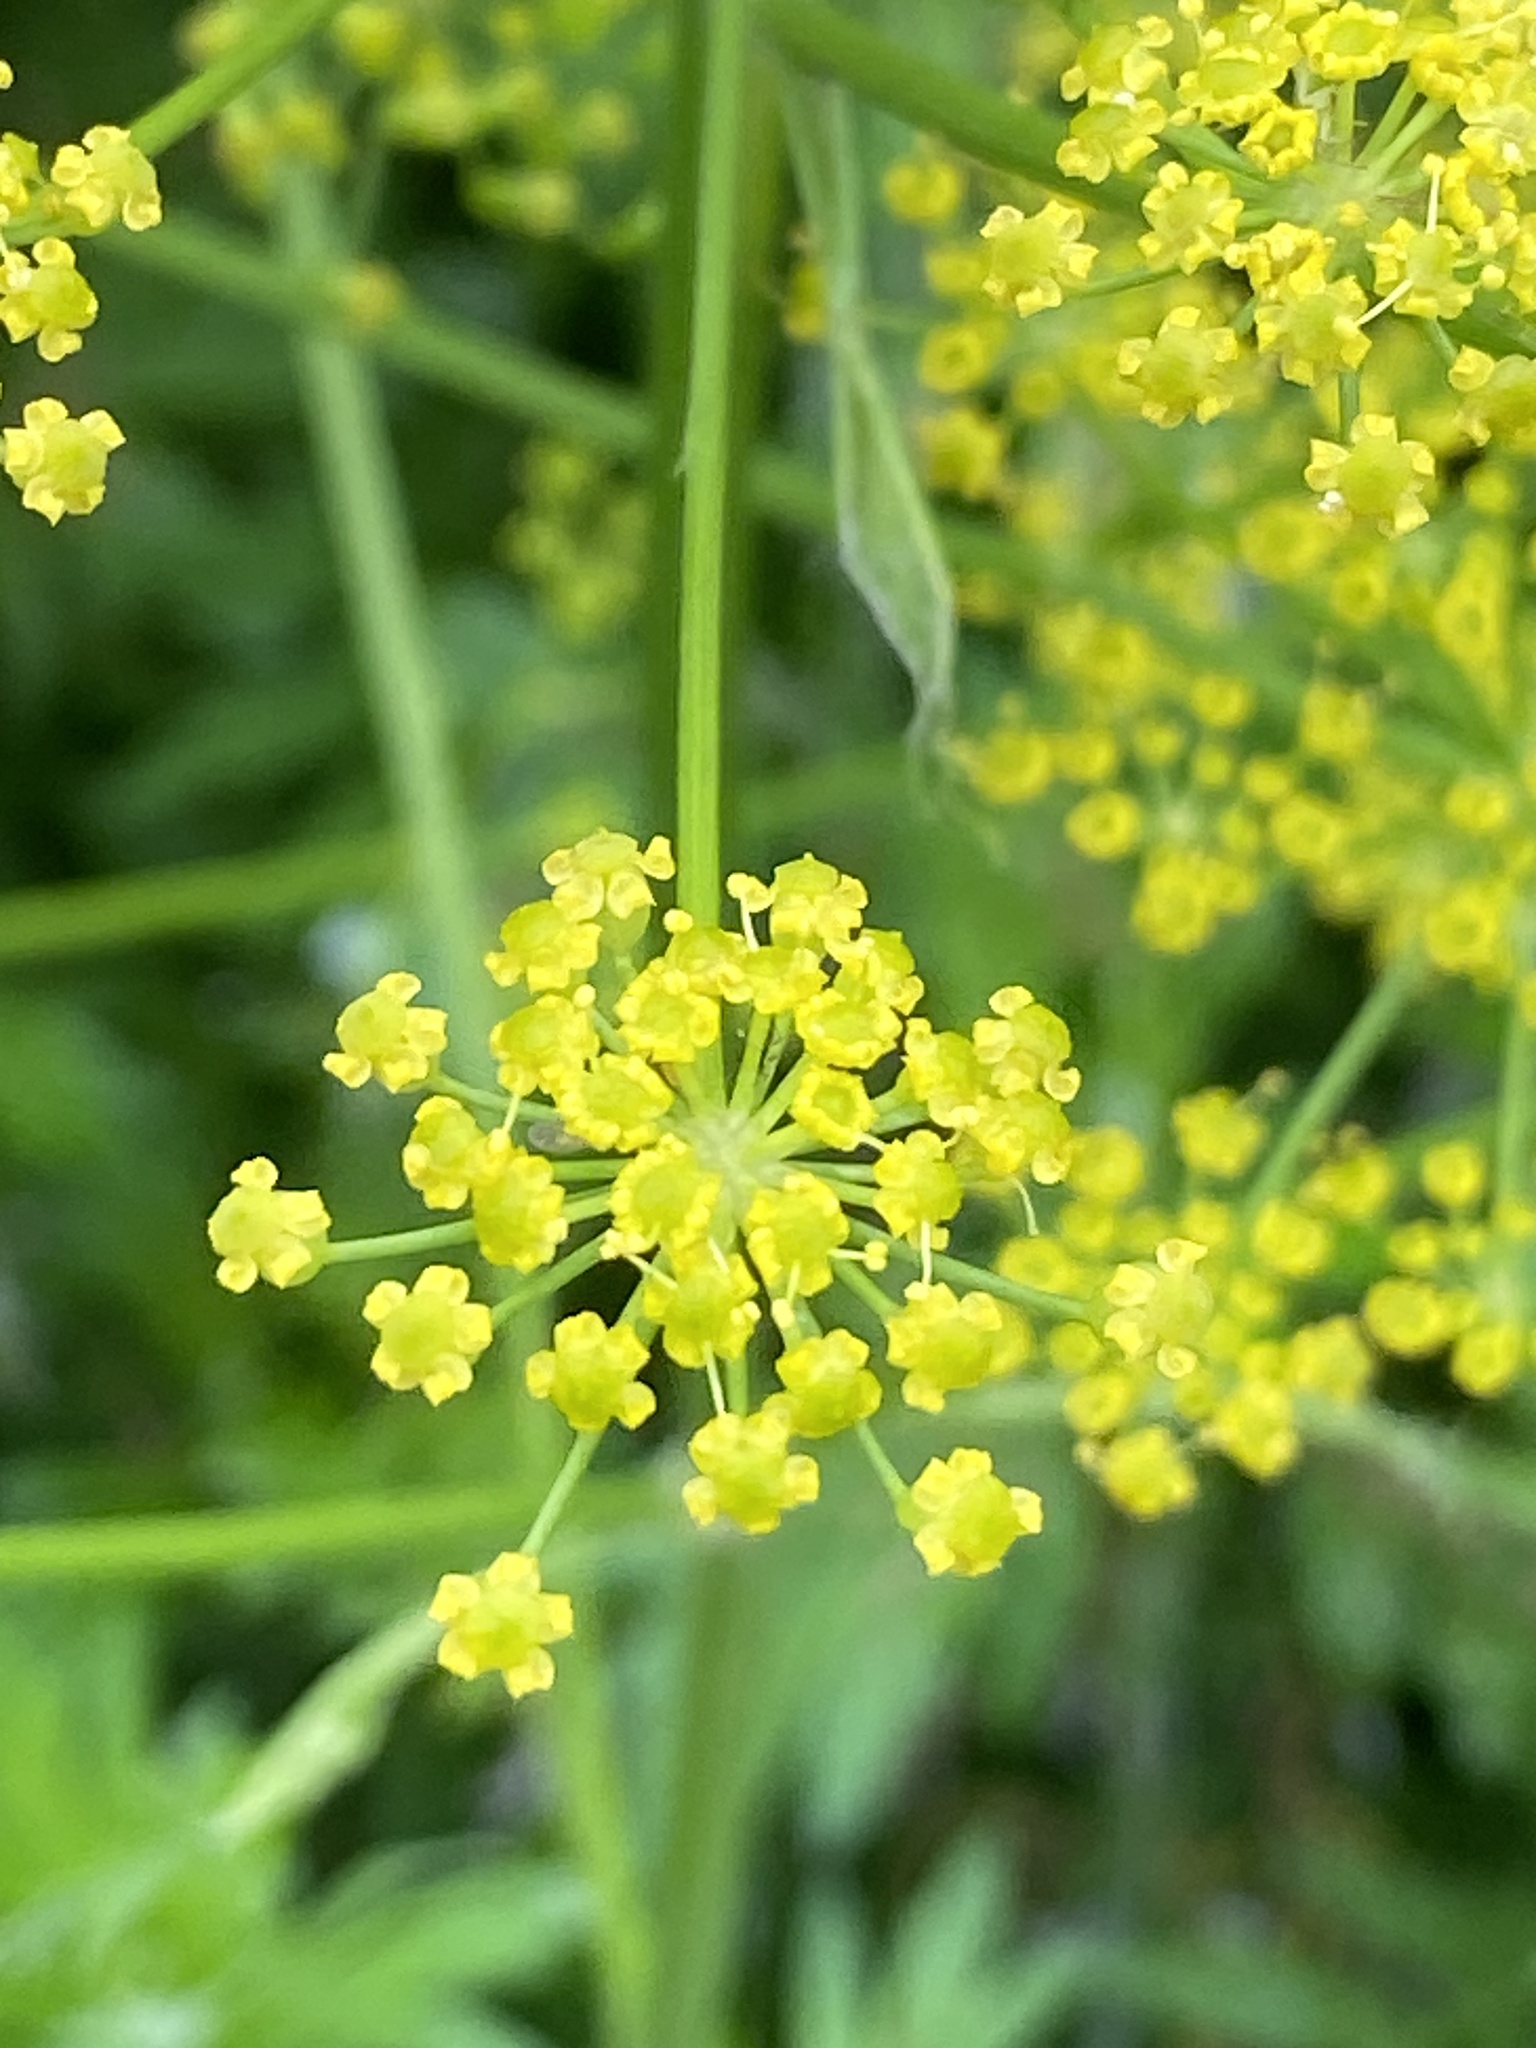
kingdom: Plantae
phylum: Tracheophyta
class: Magnoliopsida
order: Apiales
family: Apiaceae
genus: Pastinaca
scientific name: Pastinaca sativa
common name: Wild parsnip
